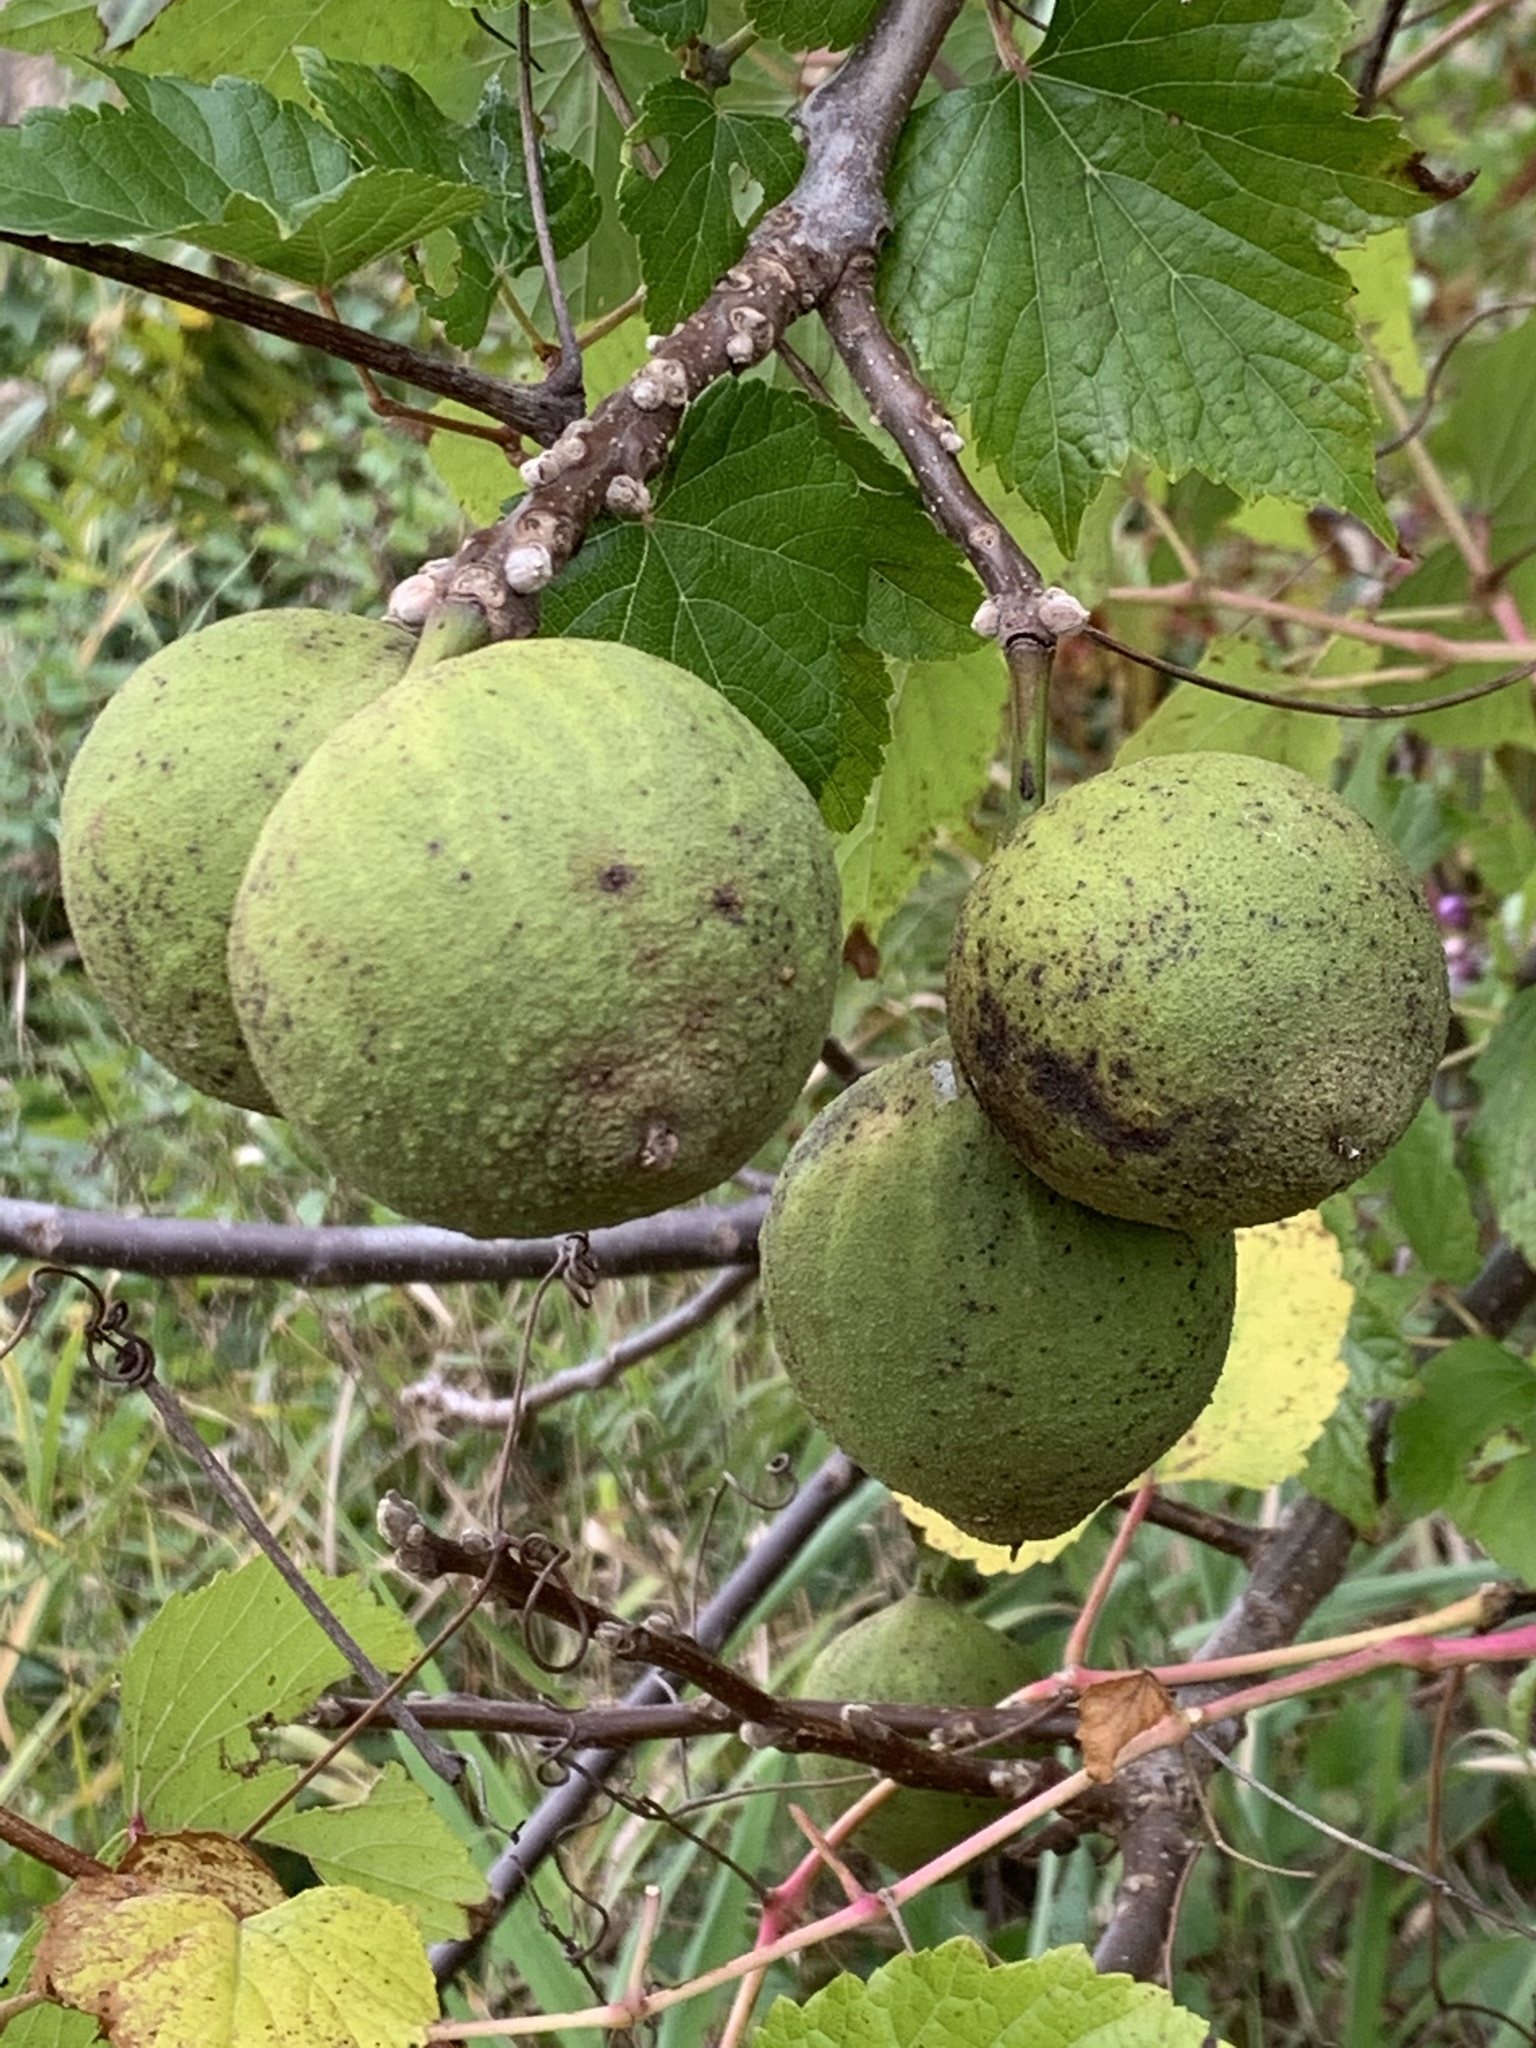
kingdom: Plantae
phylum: Tracheophyta
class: Magnoliopsida
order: Fagales
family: Juglandaceae
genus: Juglans
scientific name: Juglans nigra
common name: Black walnut
